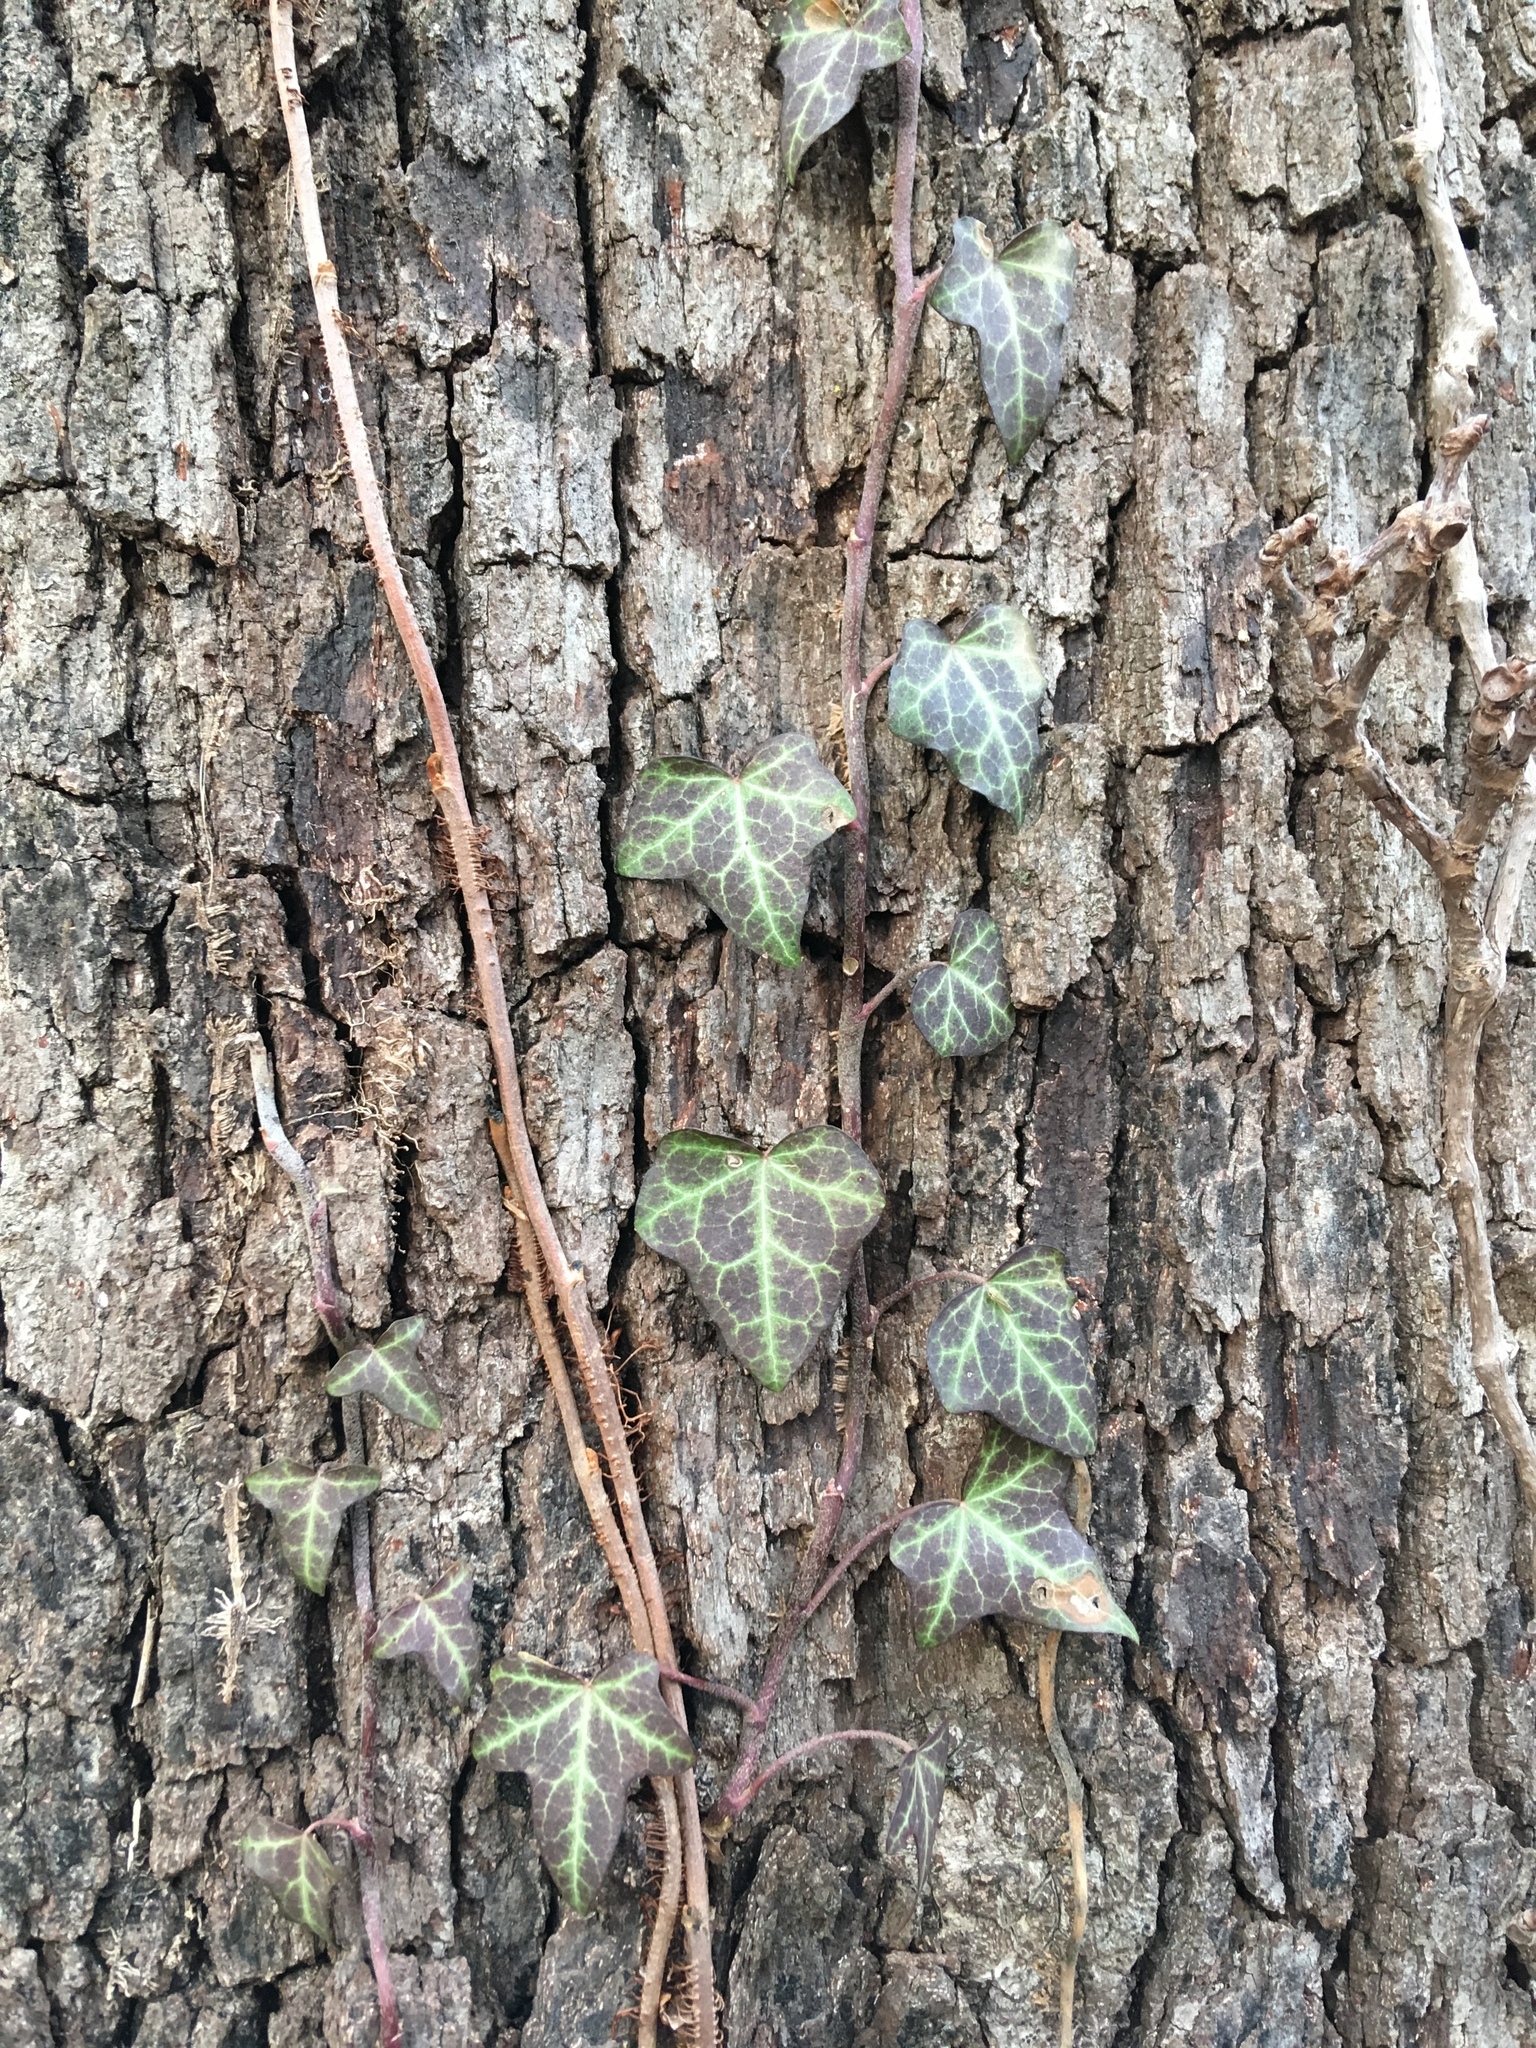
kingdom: Plantae
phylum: Tracheophyta
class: Magnoliopsida
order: Apiales
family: Araliaceae
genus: Hedera
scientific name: Hedera helix
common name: Ivy
